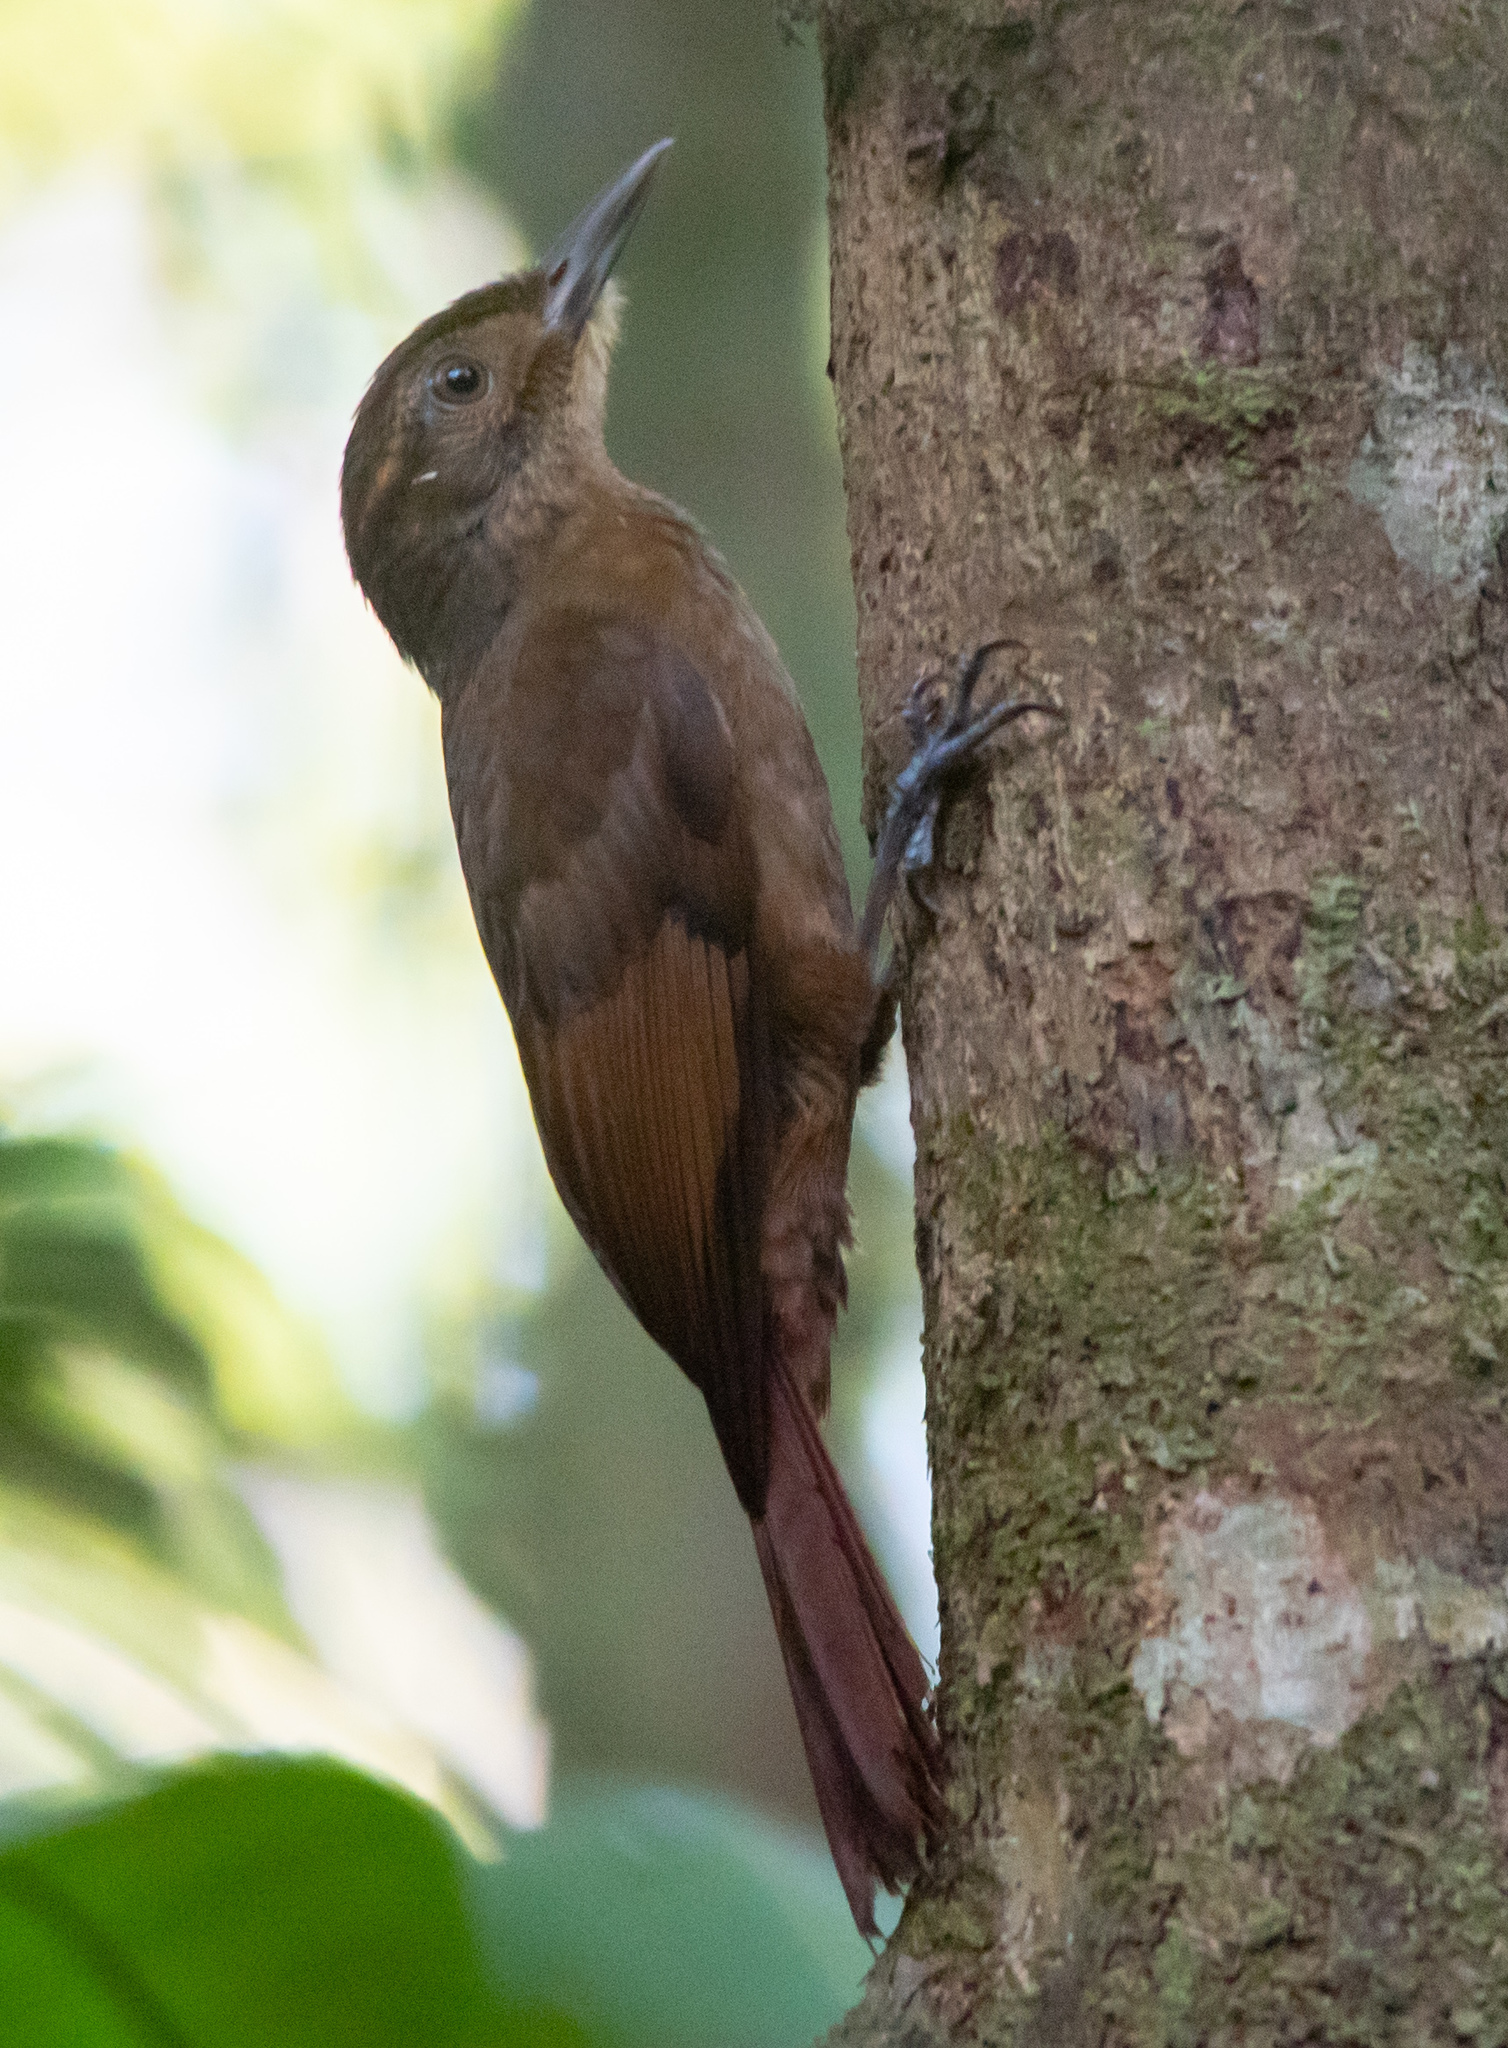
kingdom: Animalia
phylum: Chordata
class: Aves
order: Passeriformes
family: Furnariidae
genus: Dendrocincla
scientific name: Dendrocincla anabatina
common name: Tawny-winged woodcreeper
